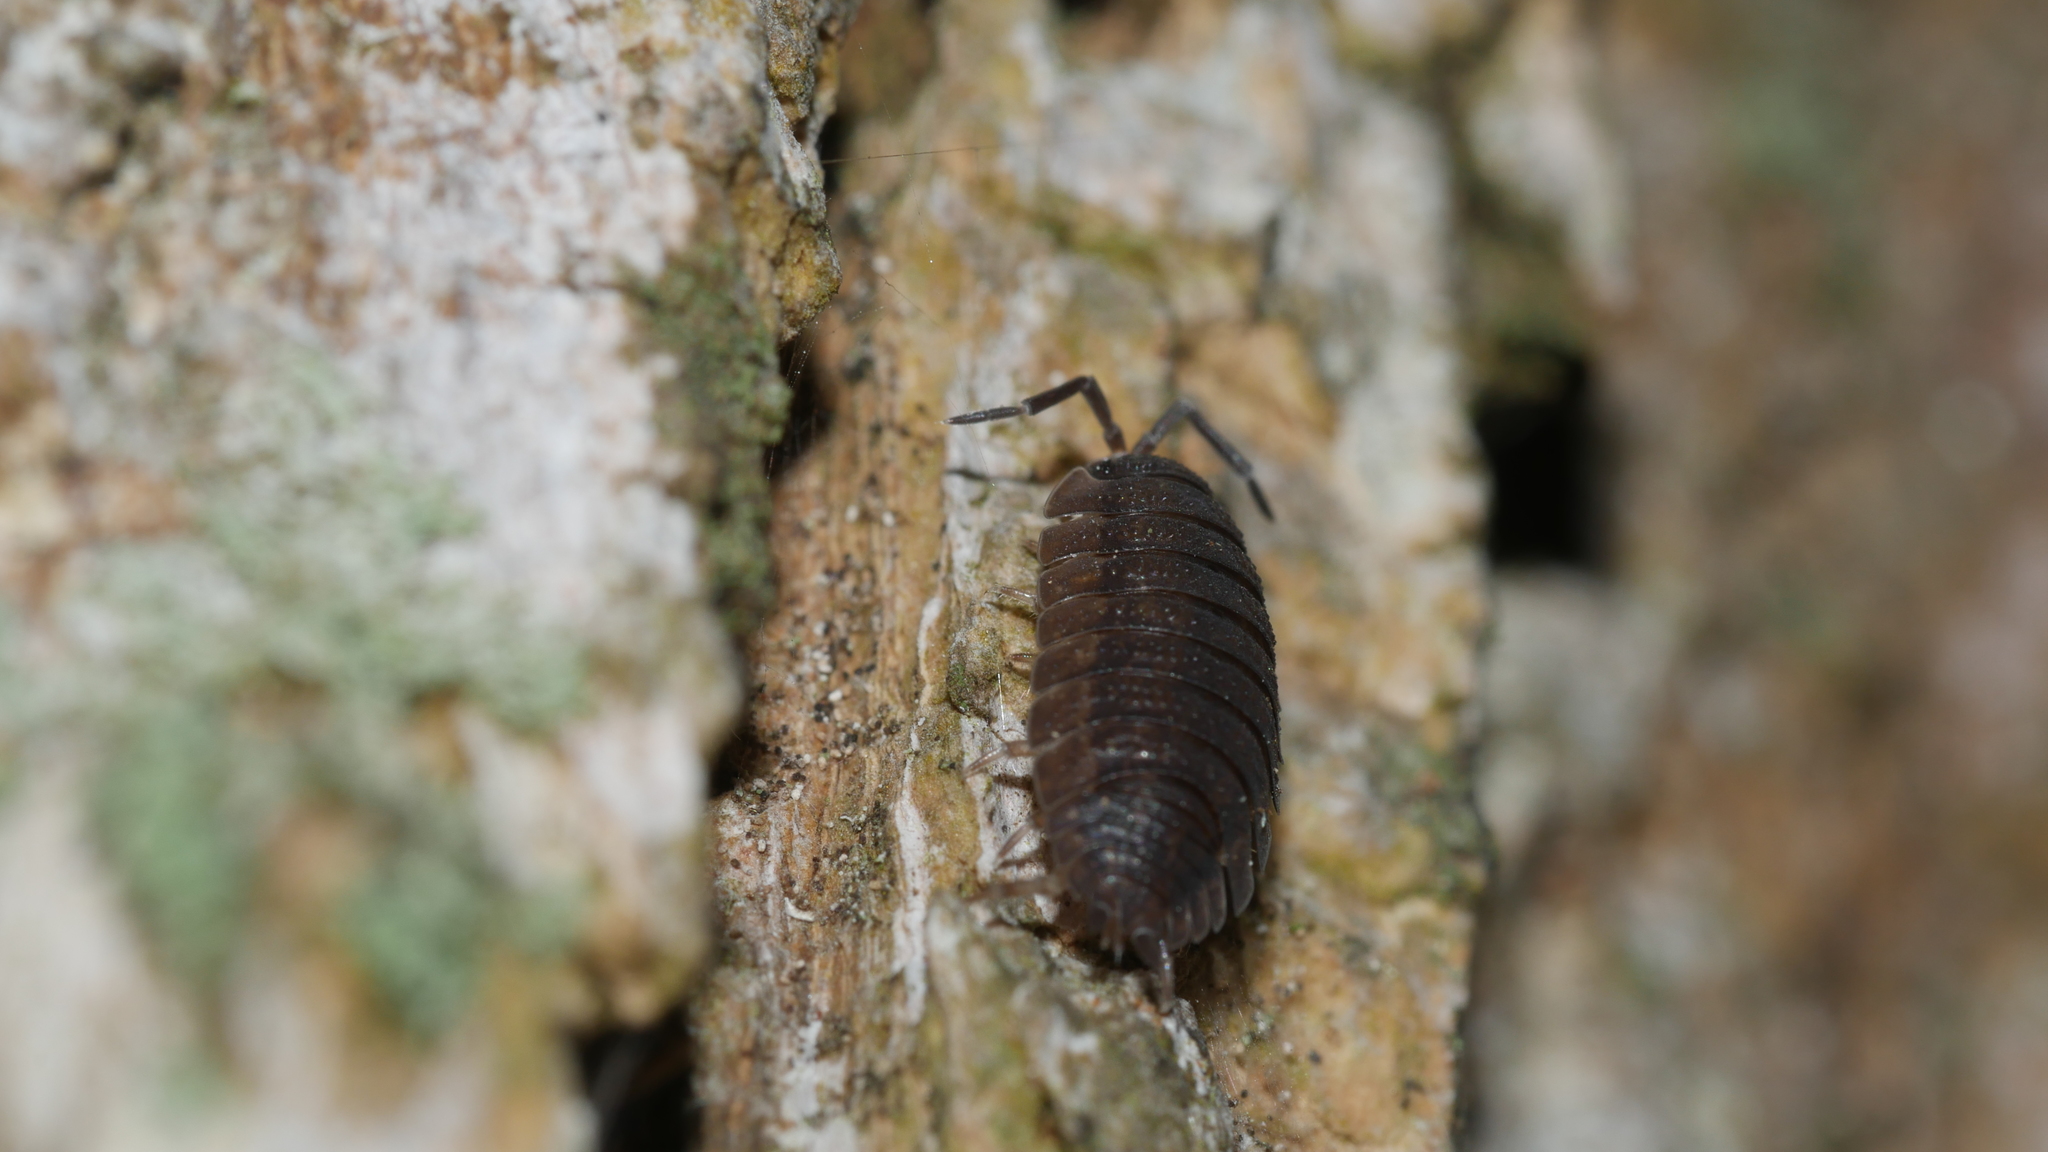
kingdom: Animalia
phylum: Arthropoda
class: Malacostraca
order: Isopoda
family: Porcellionidae
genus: Porcellio
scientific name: Porcellio scaber
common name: Common rough woodlouse
